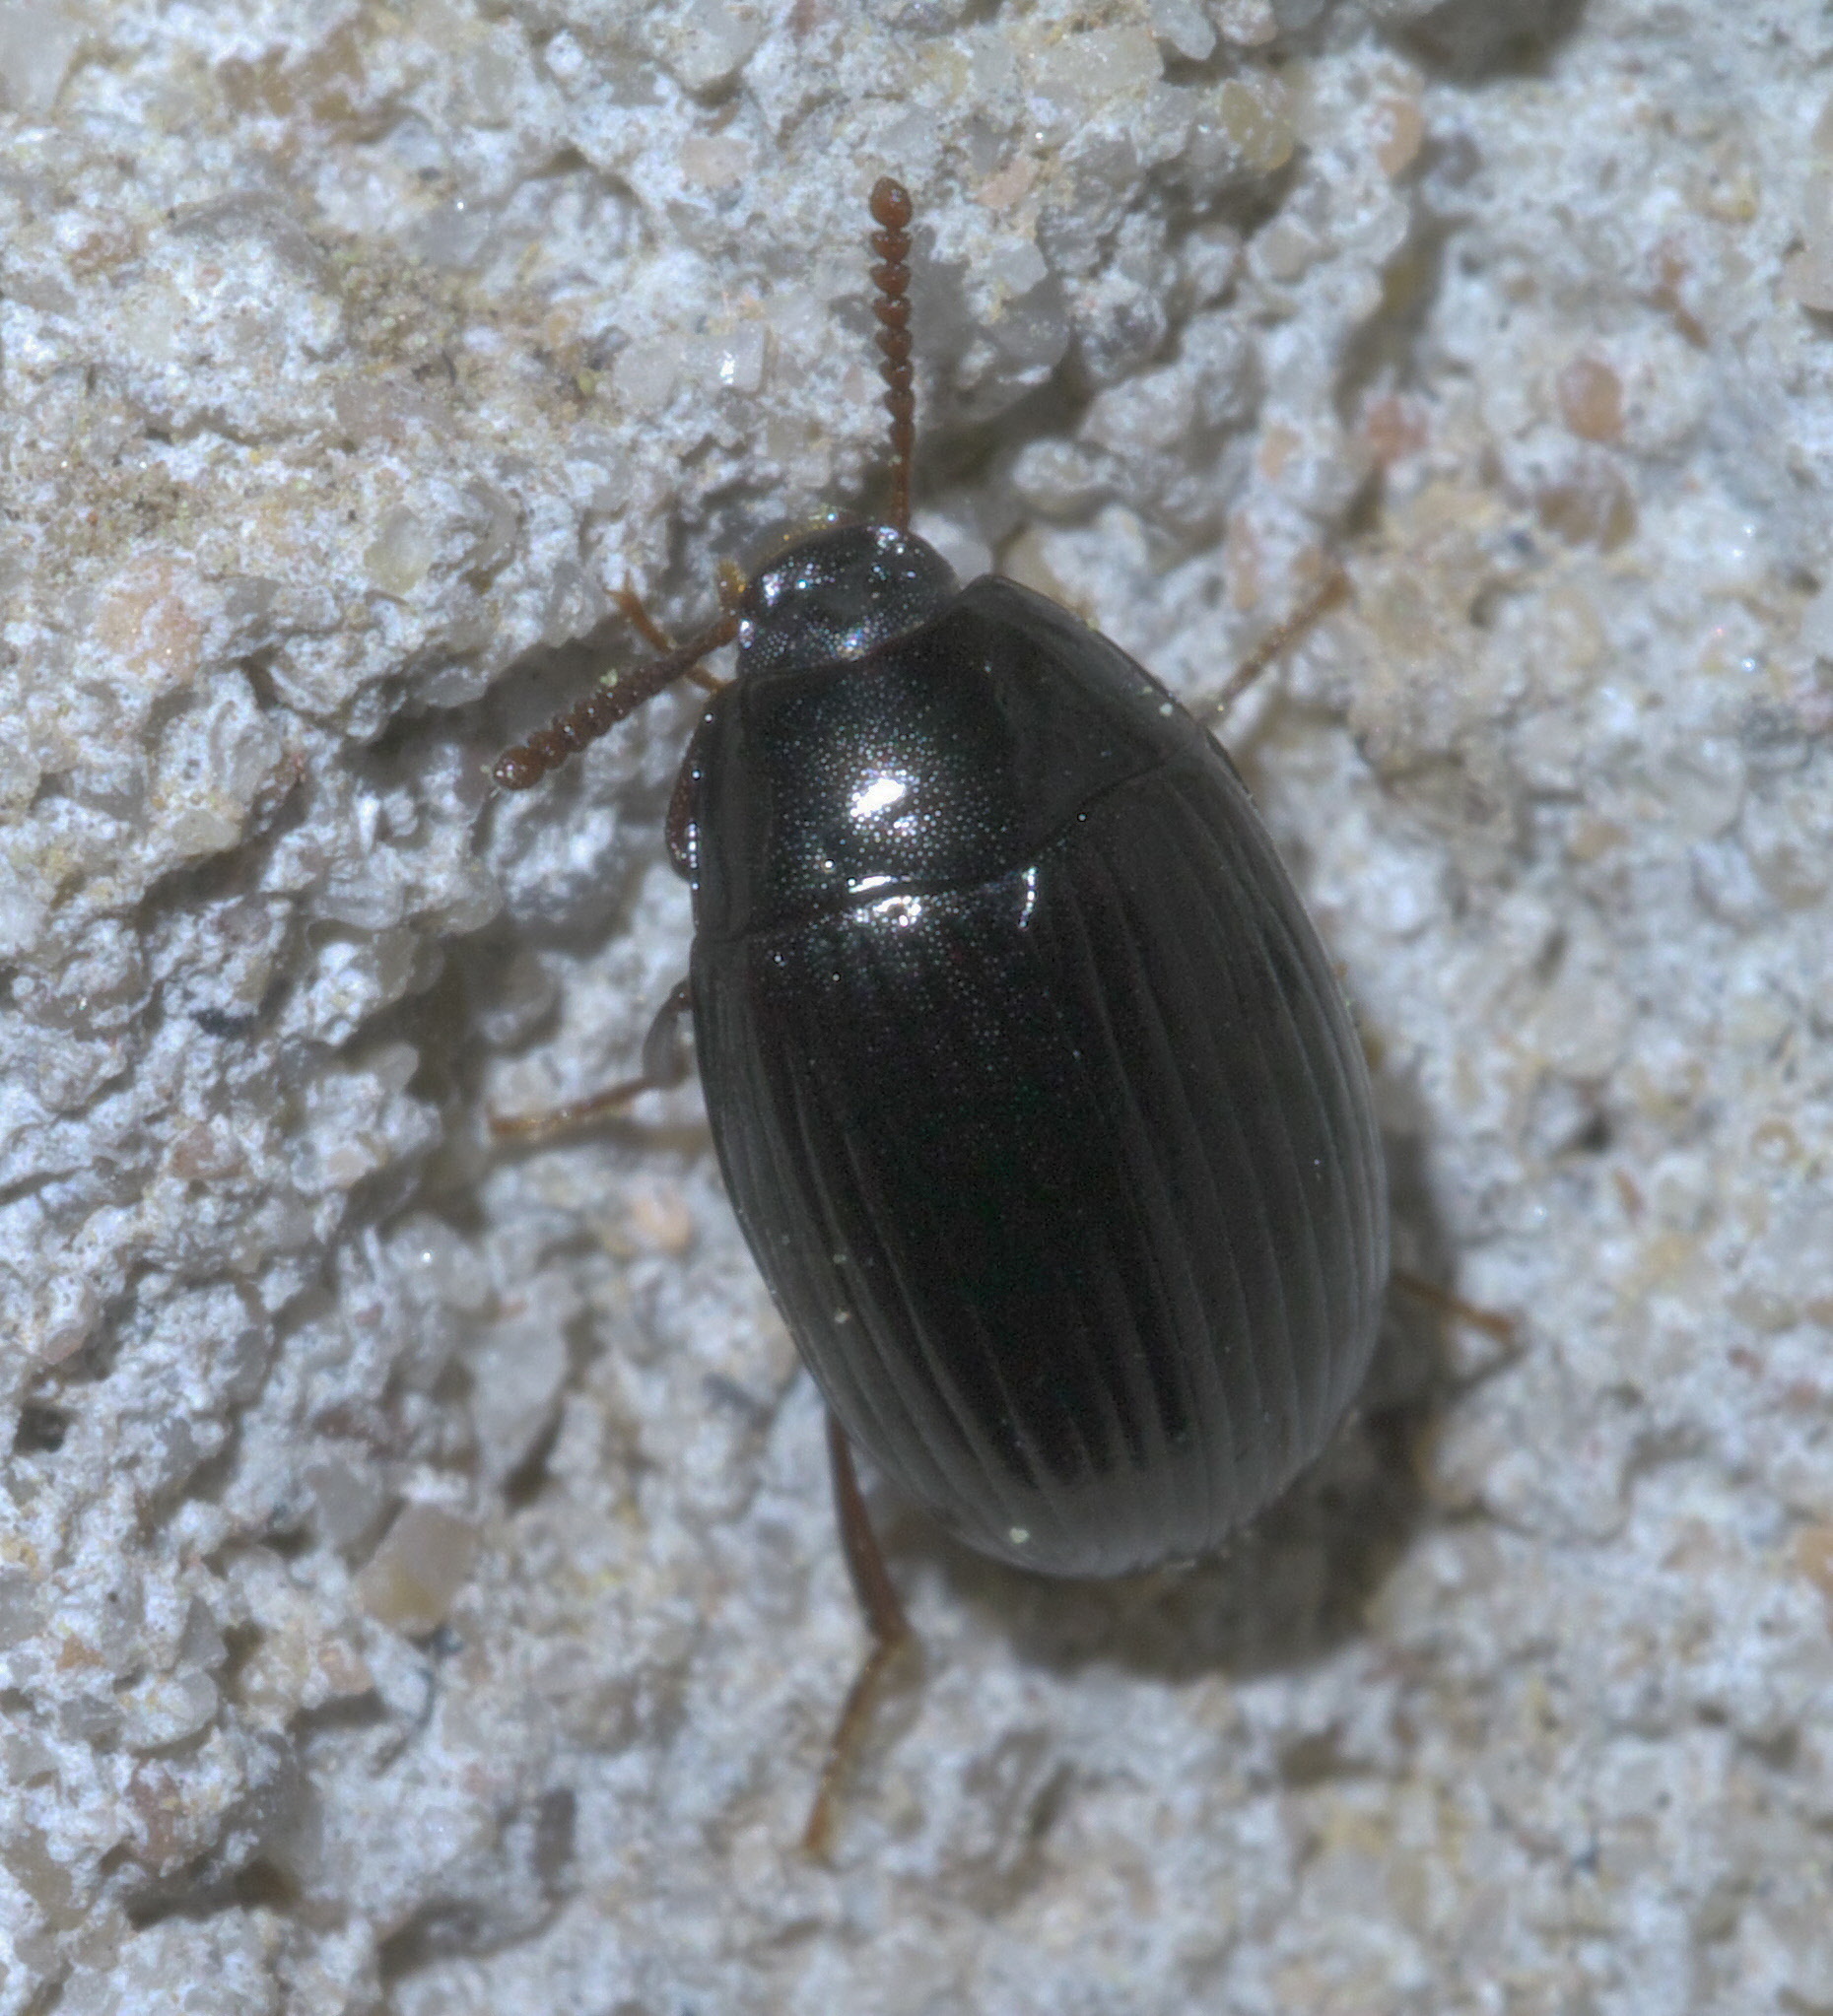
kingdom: Animalia
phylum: Arthropoda
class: Insecta
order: Coleoptera
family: Tenebrionidae
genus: Platydema
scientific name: Platydema excavata
